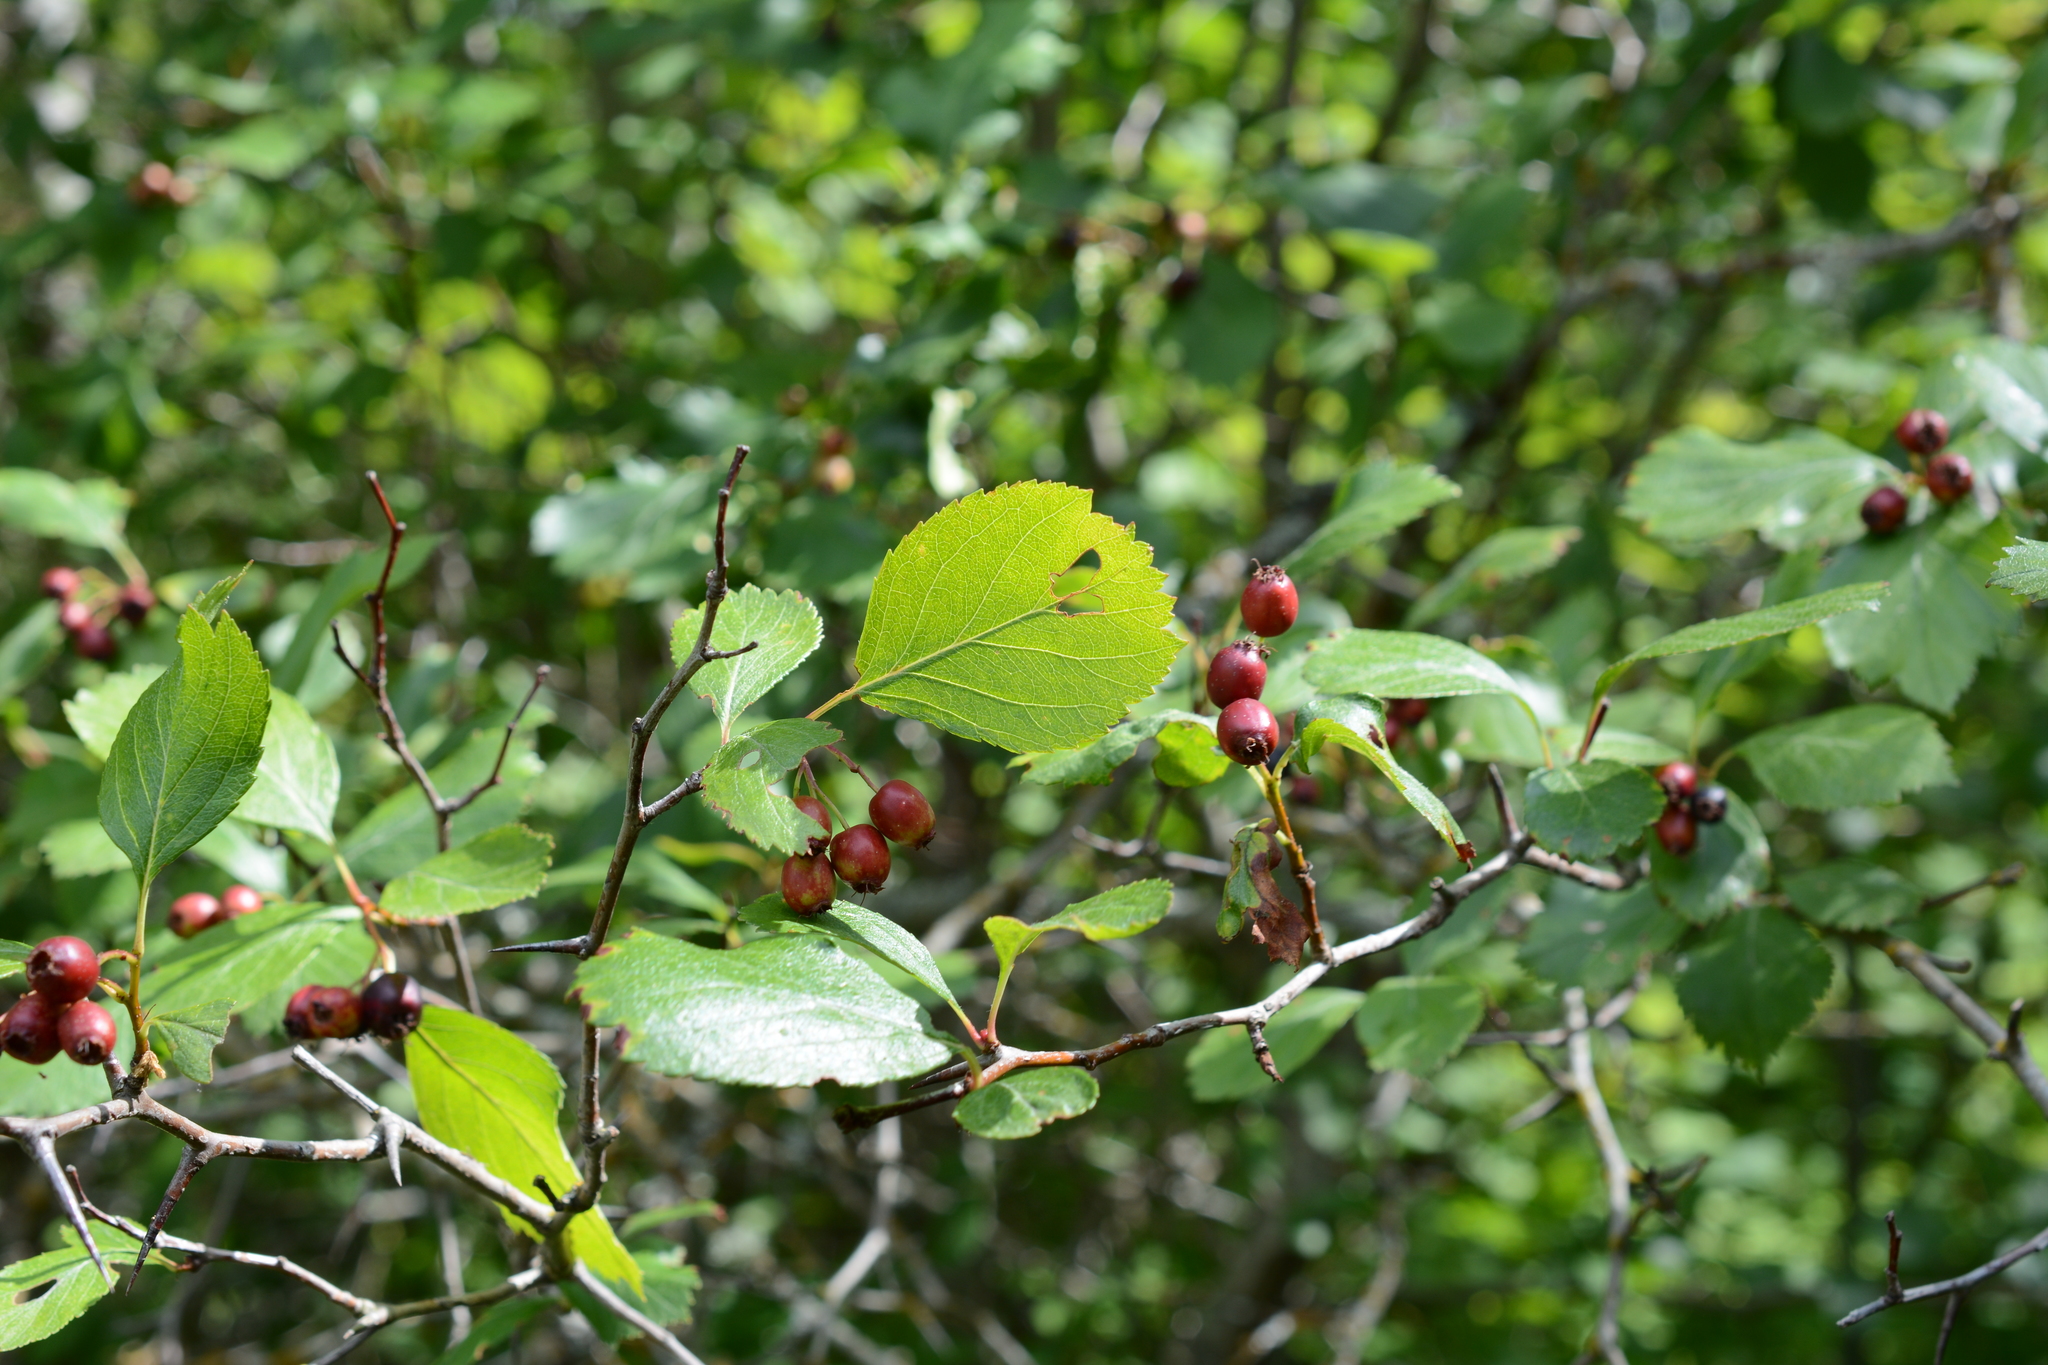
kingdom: Plantae
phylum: Tracheophyta
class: Magnoliopsida
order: Rosales
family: Rosaceae
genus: Crataegus
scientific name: Crataegus douglasii
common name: Black hawthorn
